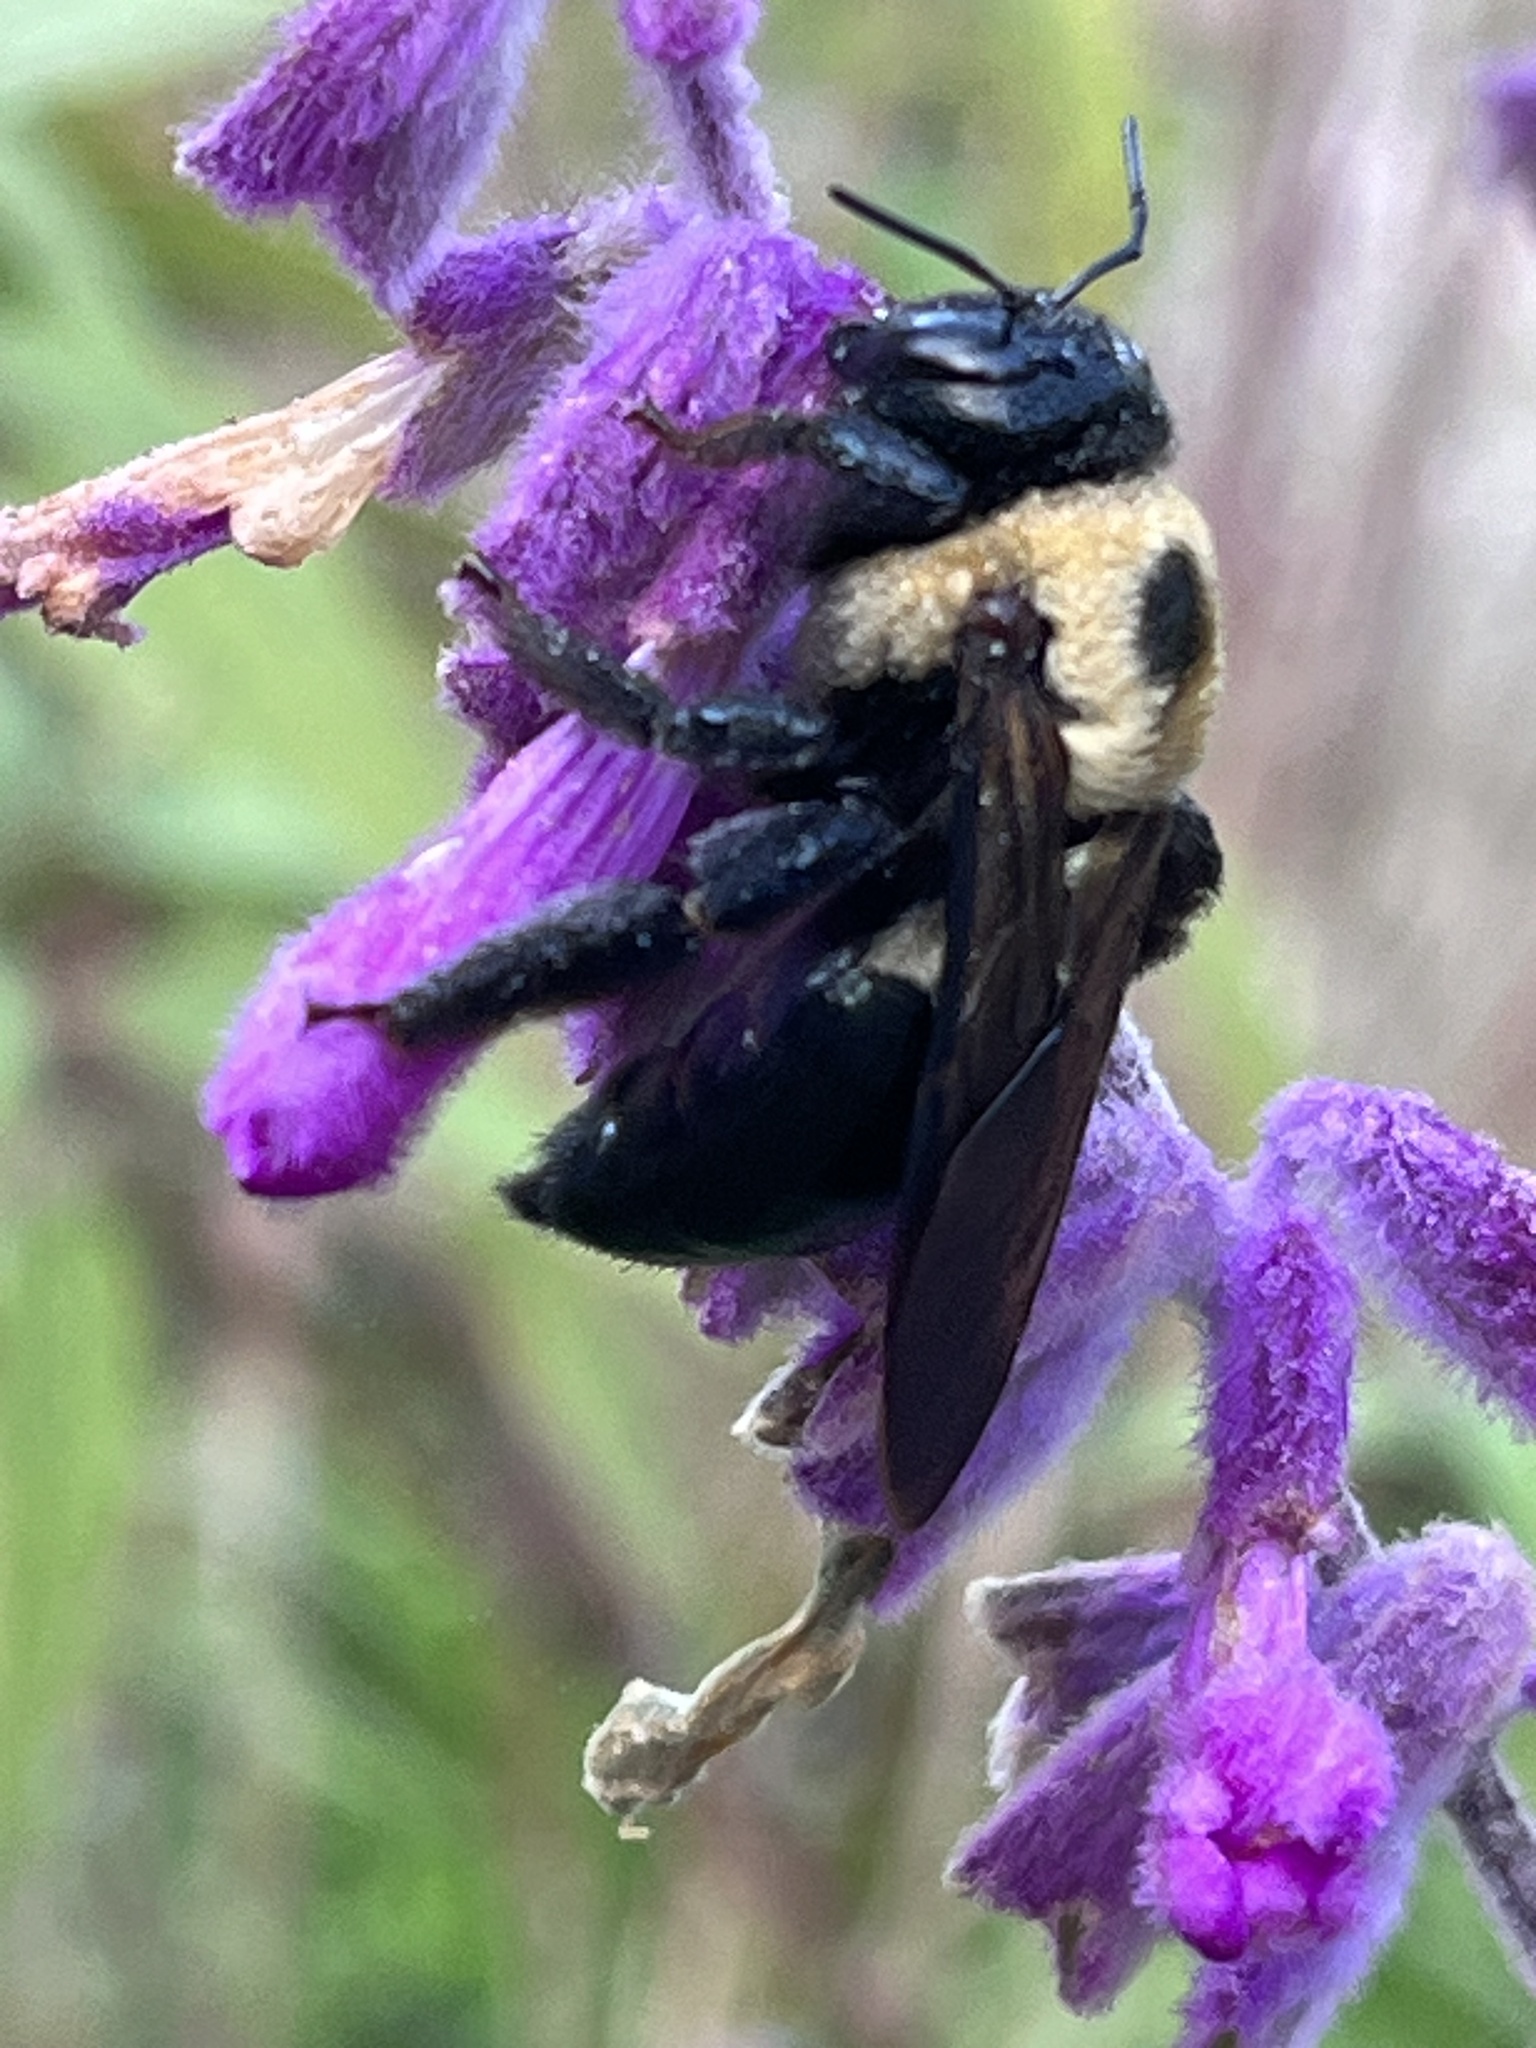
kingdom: Animalia
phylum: Arthropoda
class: Insecta
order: Hymenoptera
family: Apidae
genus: Xylocopa
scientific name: Xylocopa virginica
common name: Carpenter bee
